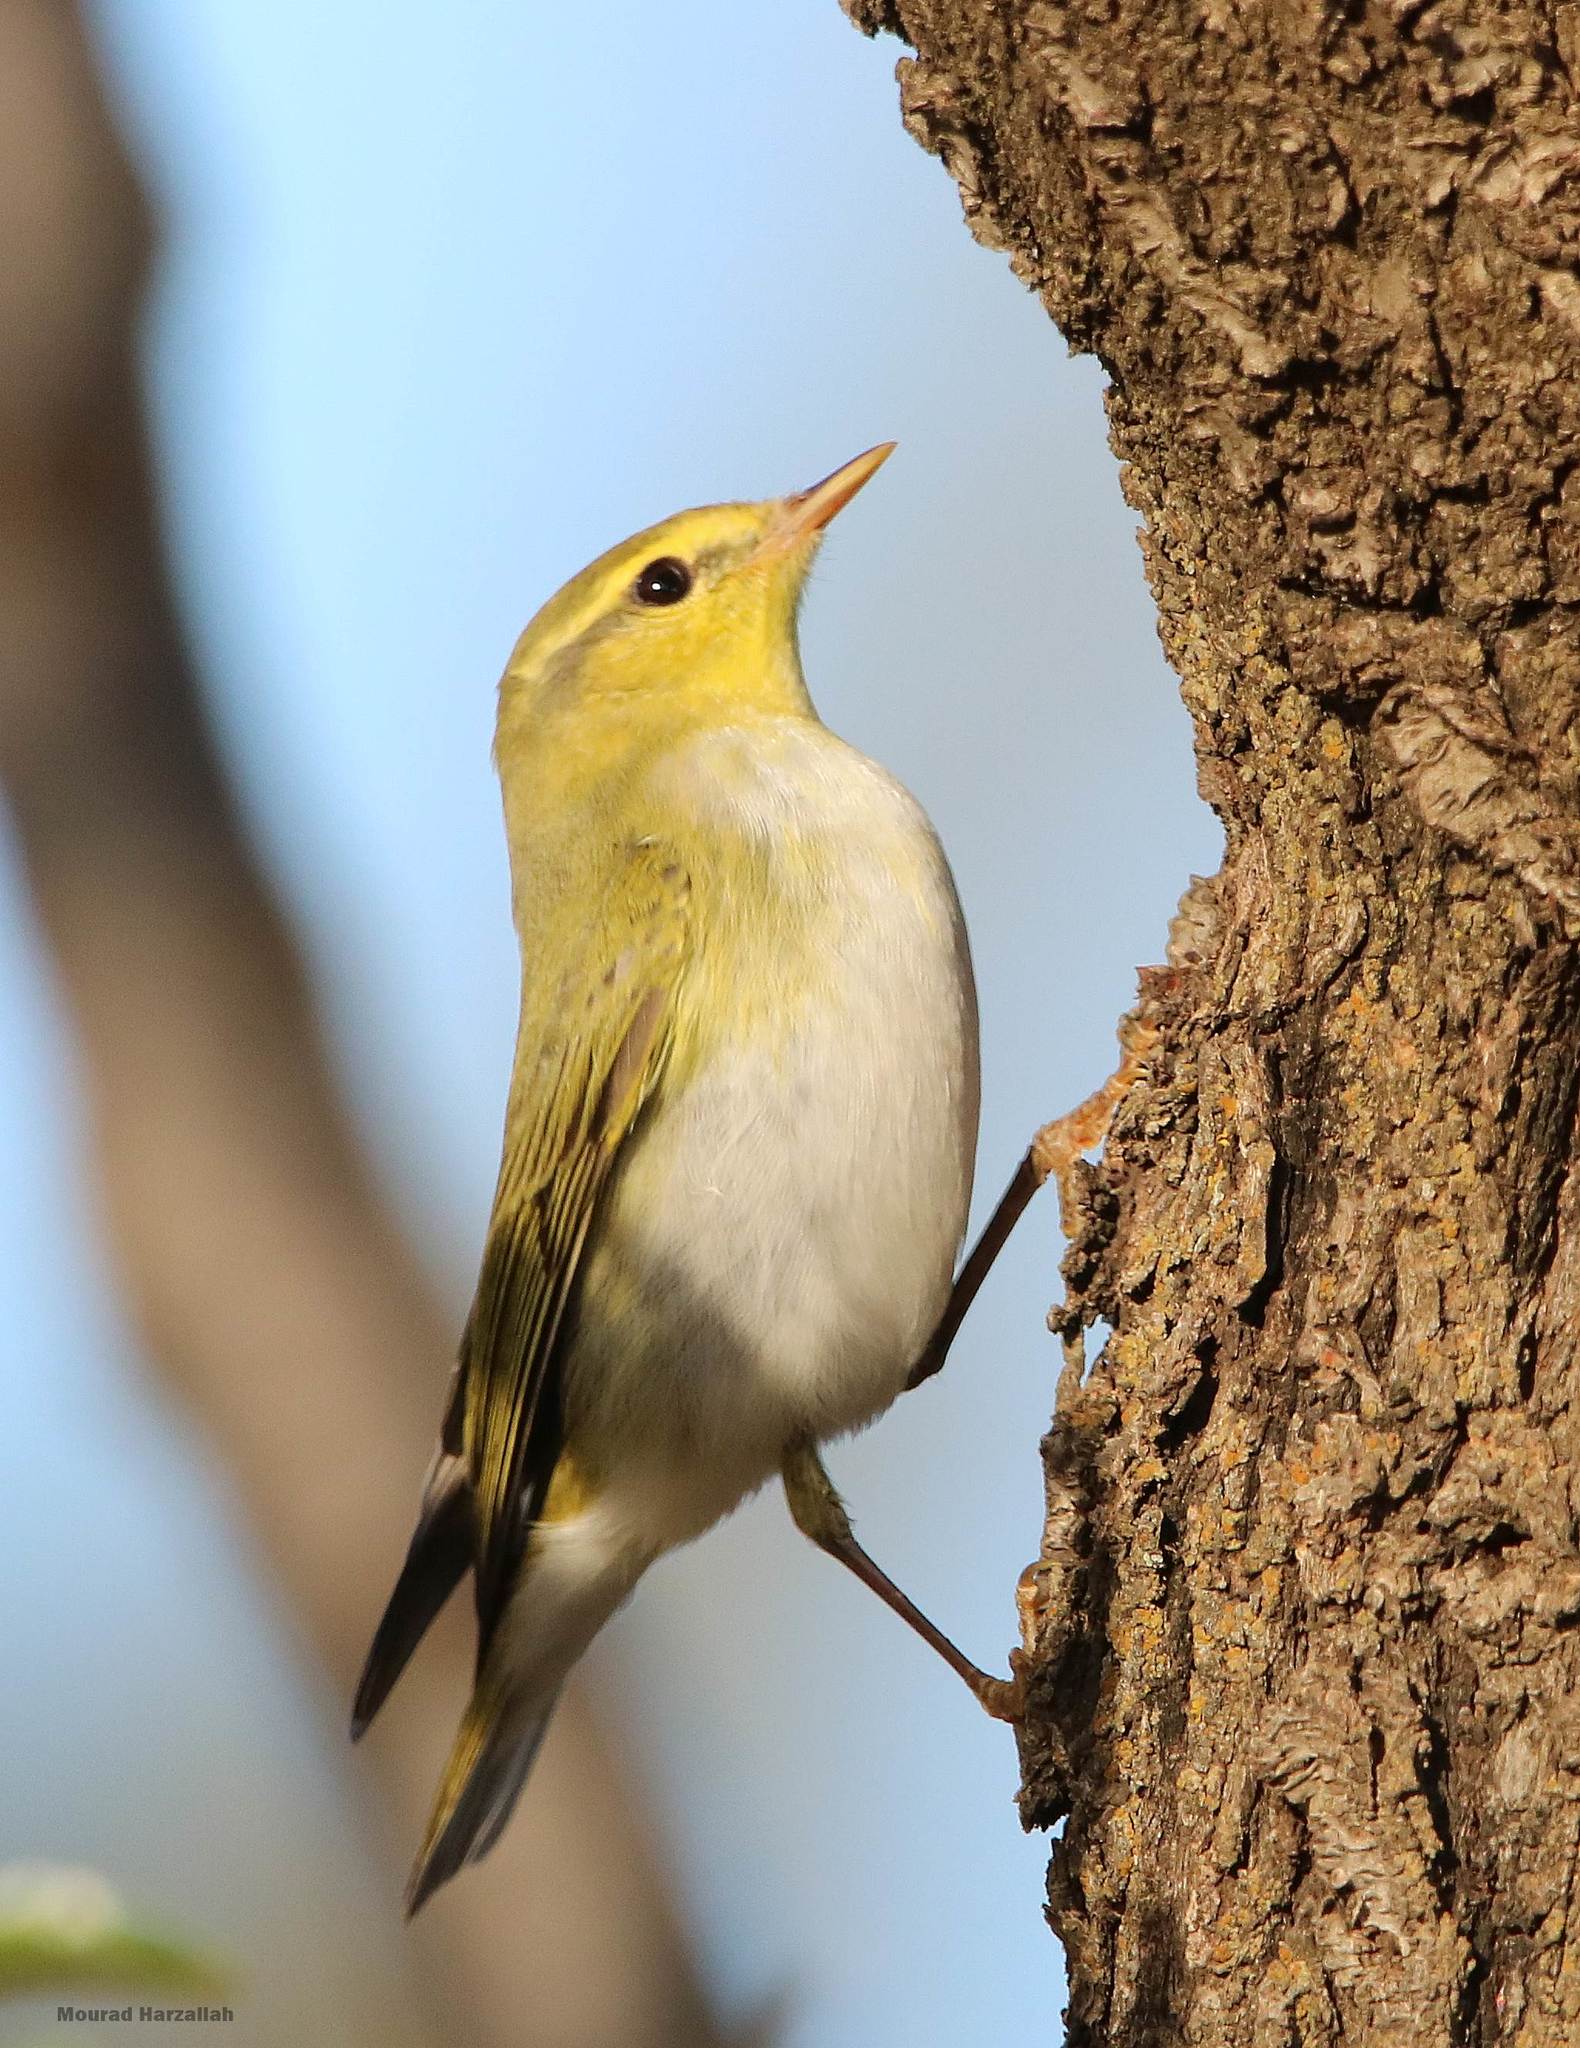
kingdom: Animalia
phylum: Chordata
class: Aves
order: Passeriformes
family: Phylloscopidae
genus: Phylloscopus
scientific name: Phylloscopus sibillatrix
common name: Wood warbler
